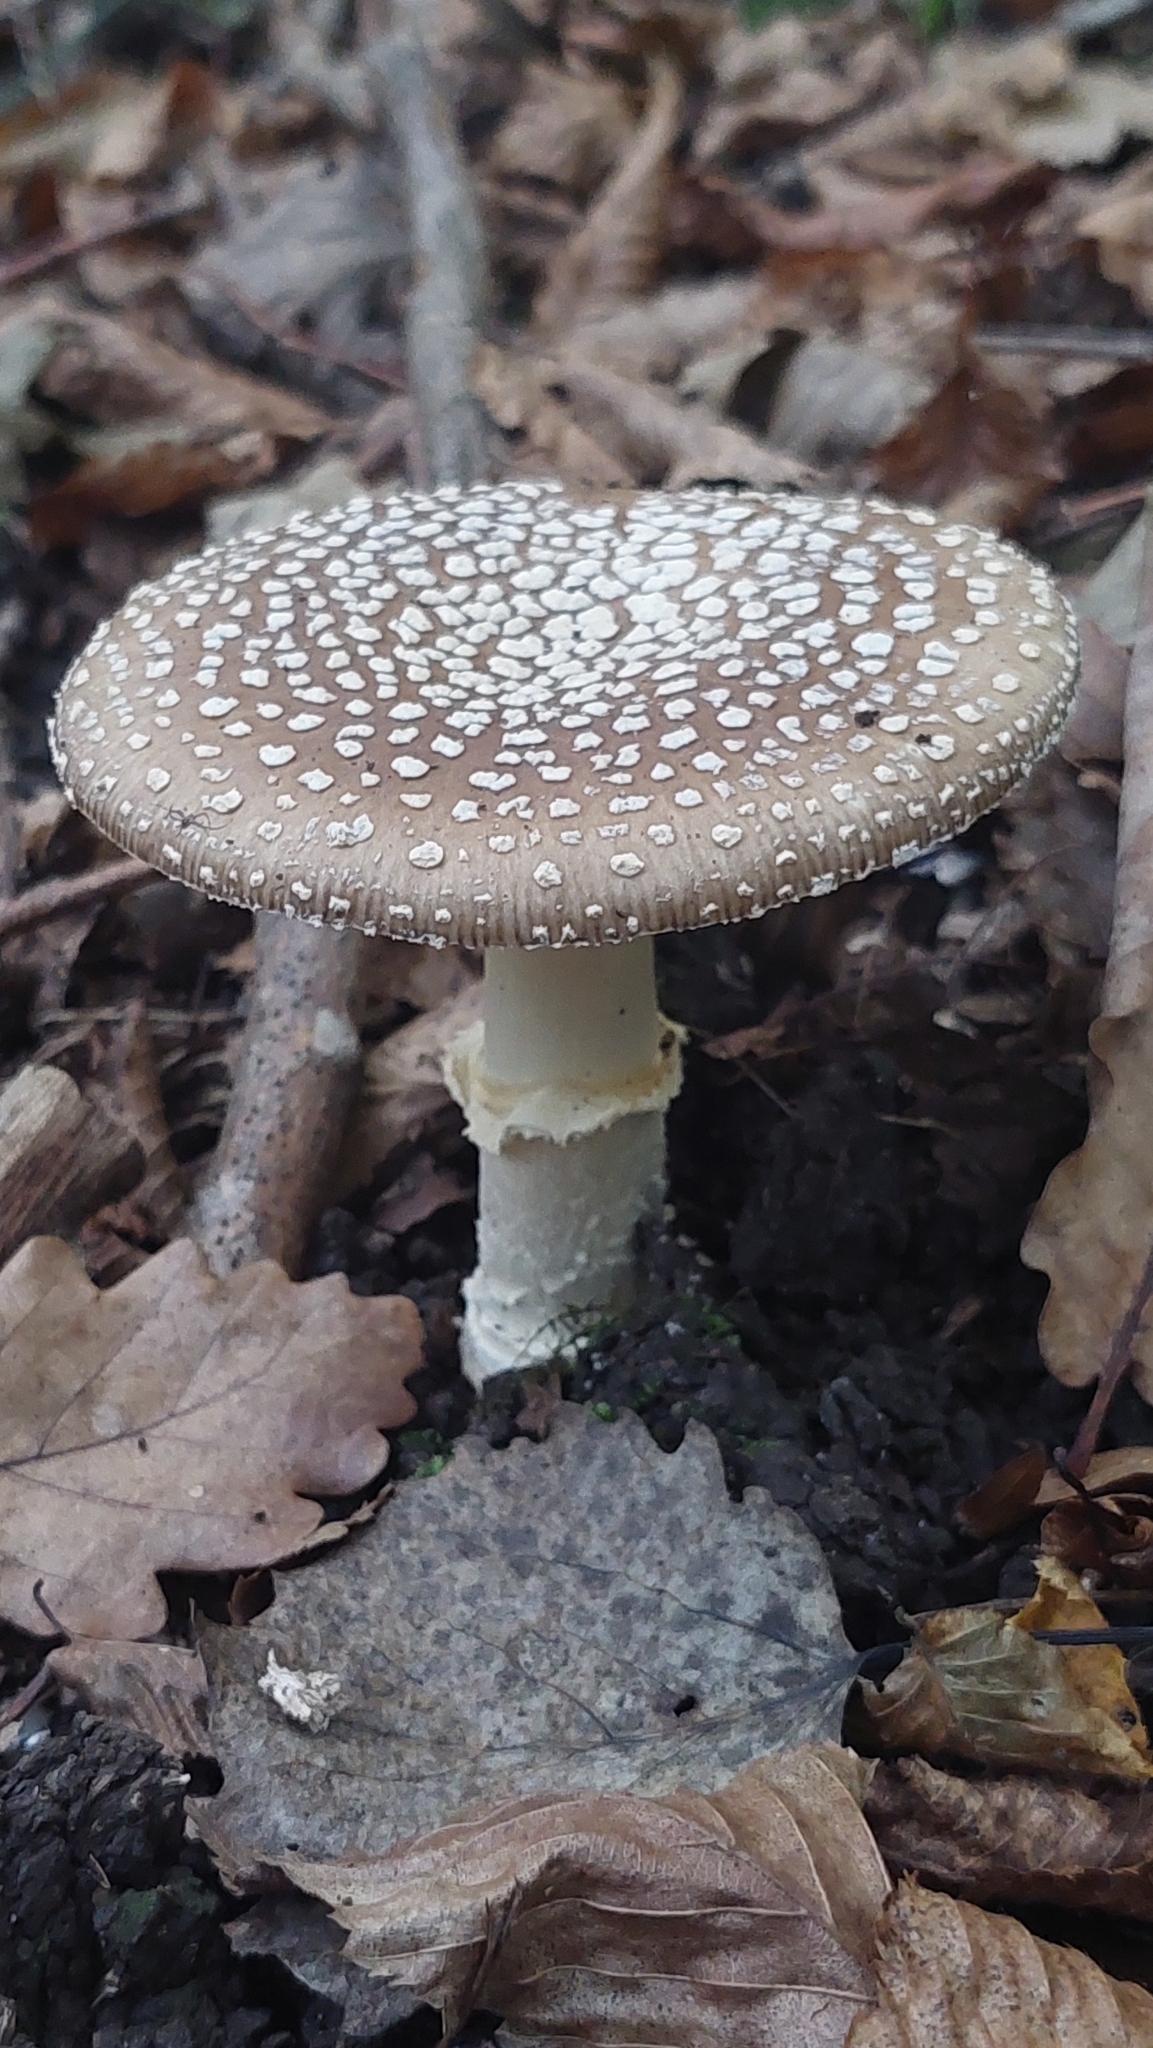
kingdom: Fungi
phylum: Basidiomycota
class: Agaricomycetes
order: Agaricales
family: Amanitaceae
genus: Amanita
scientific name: Amanita pantherina
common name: Panthercap
